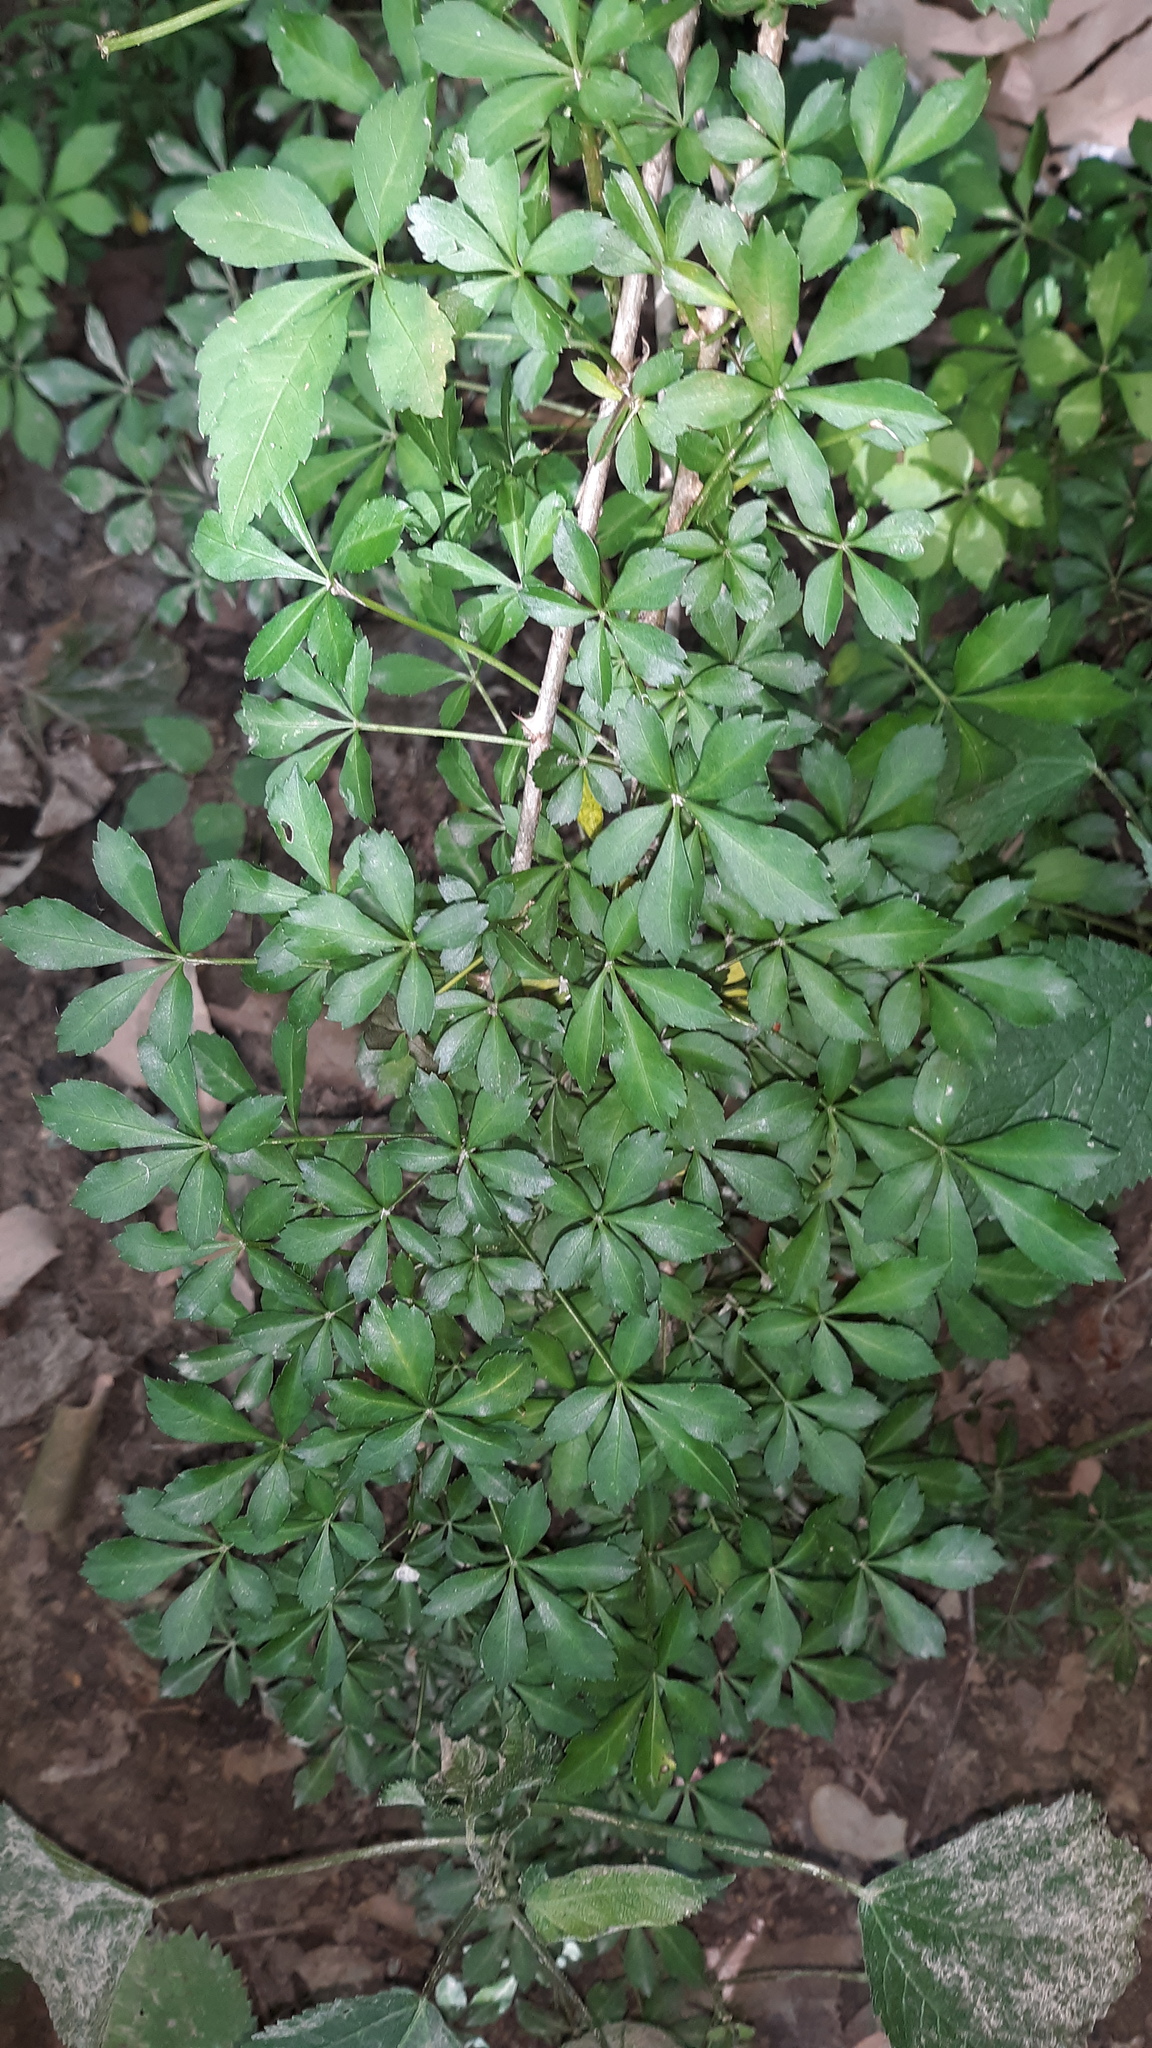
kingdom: Plantae
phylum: Tracheophyta
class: Magnoliopsida
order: Apiales
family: Araliaceae
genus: Eleutherococcus
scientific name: Eleutherococcus sieboldianus
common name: Ginseng
